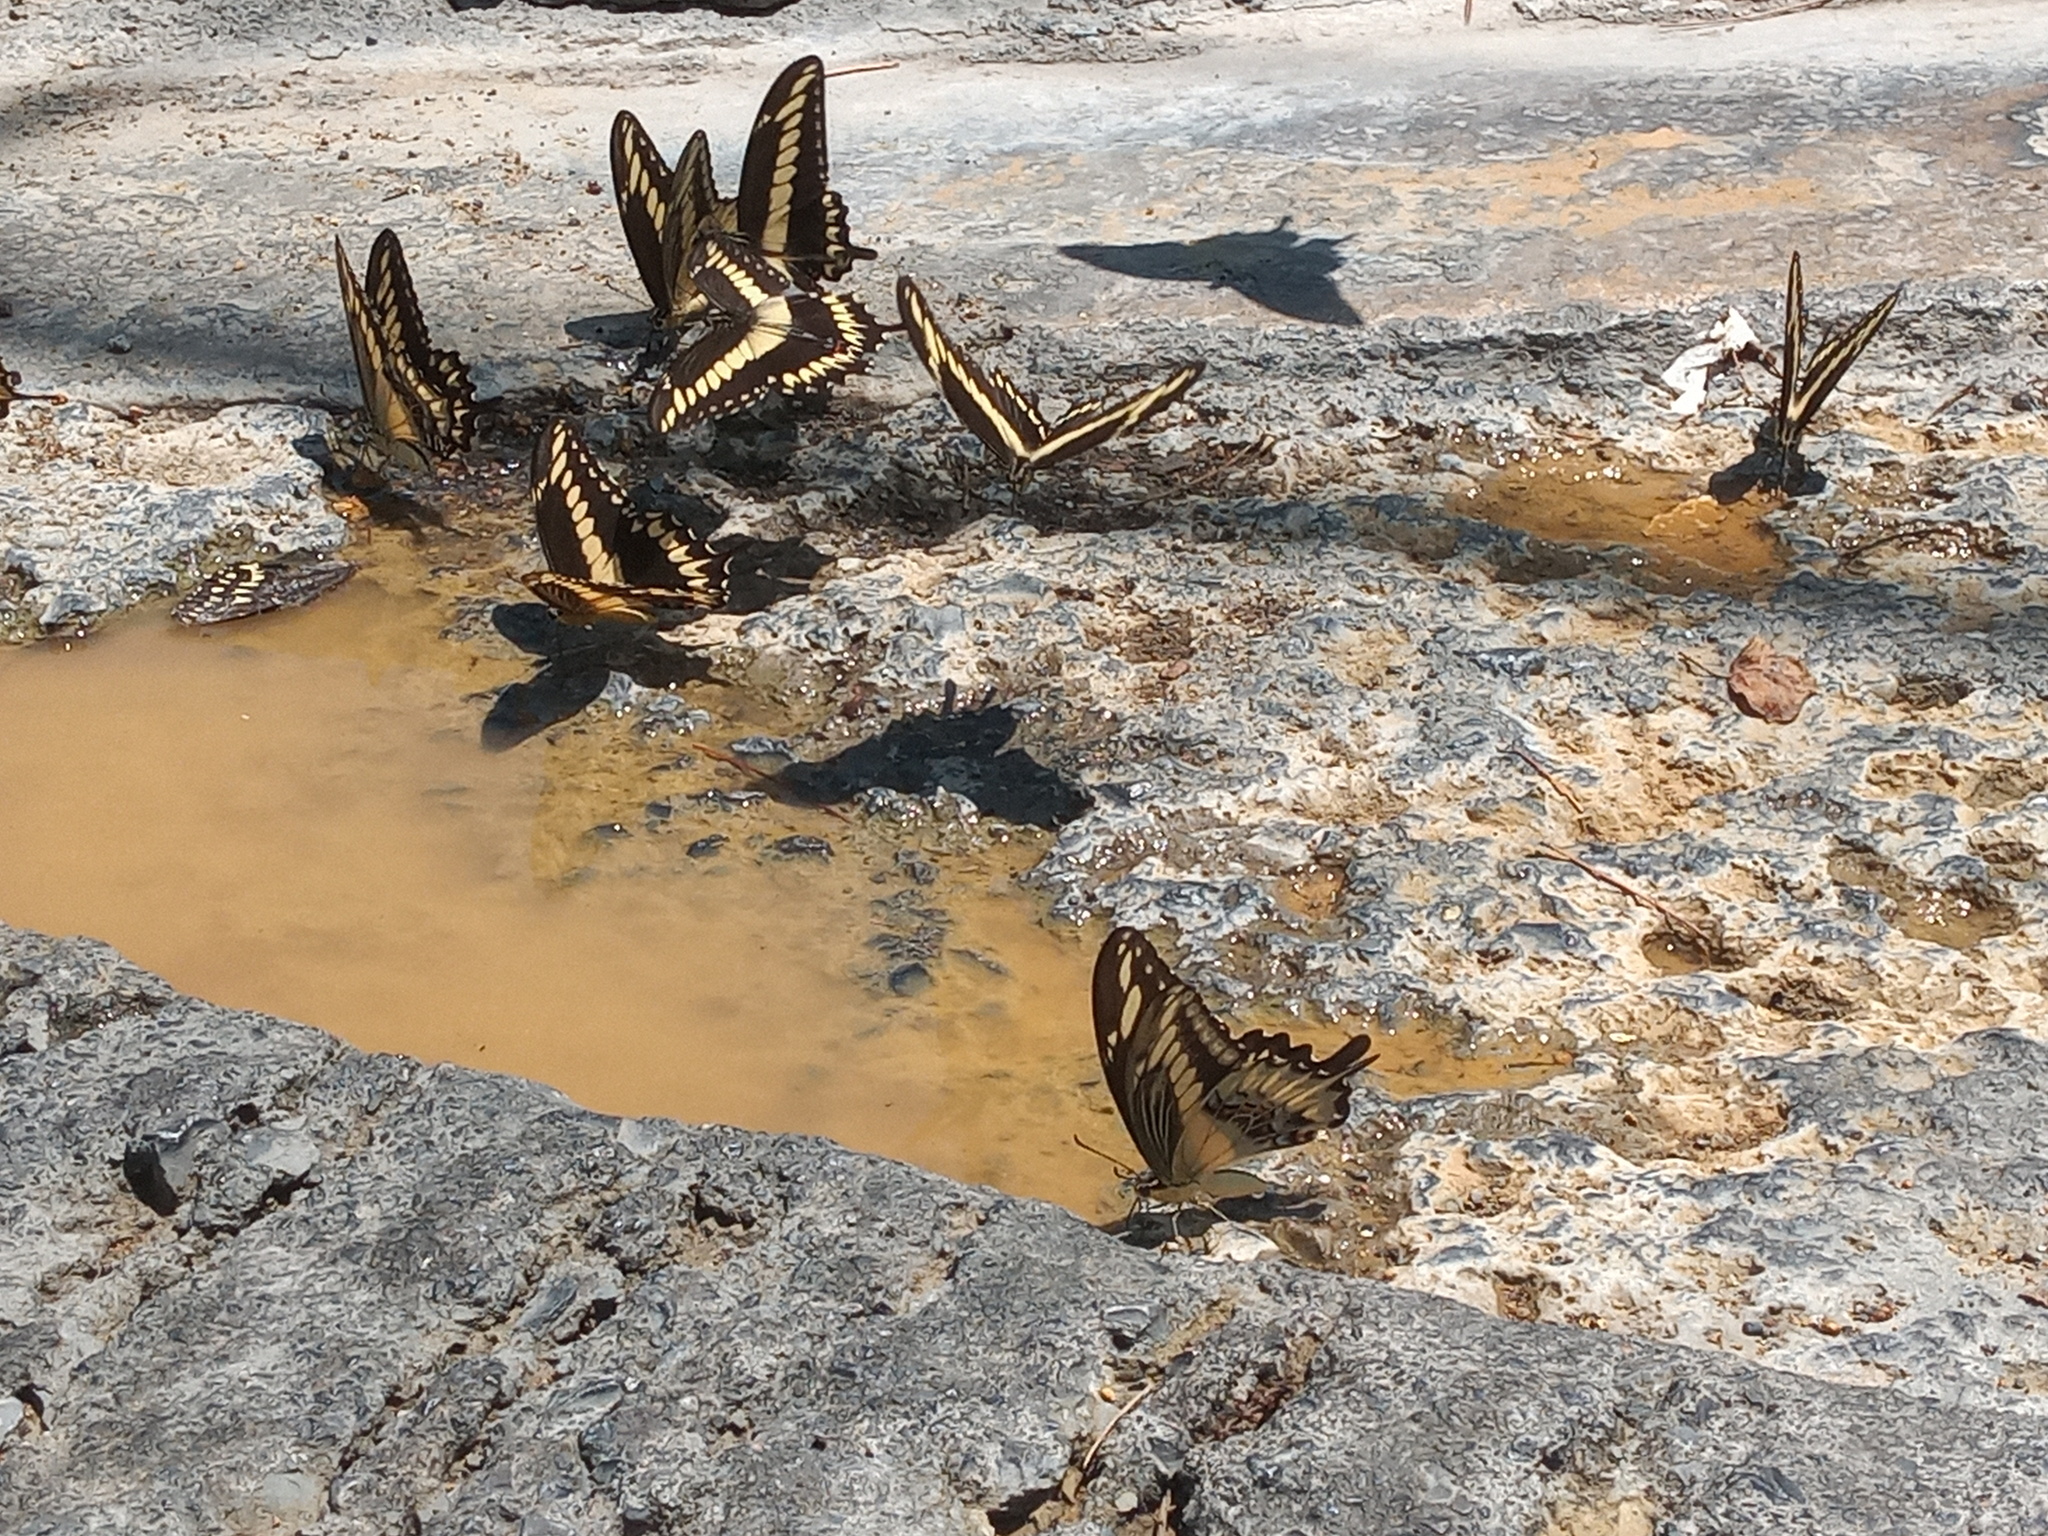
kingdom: Animalia
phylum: Arthropoda
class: Insecta
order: Lepidoptera
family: Papilionidae
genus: Papilio
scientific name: Papilio ornythion
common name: Ornythion swallowtail
